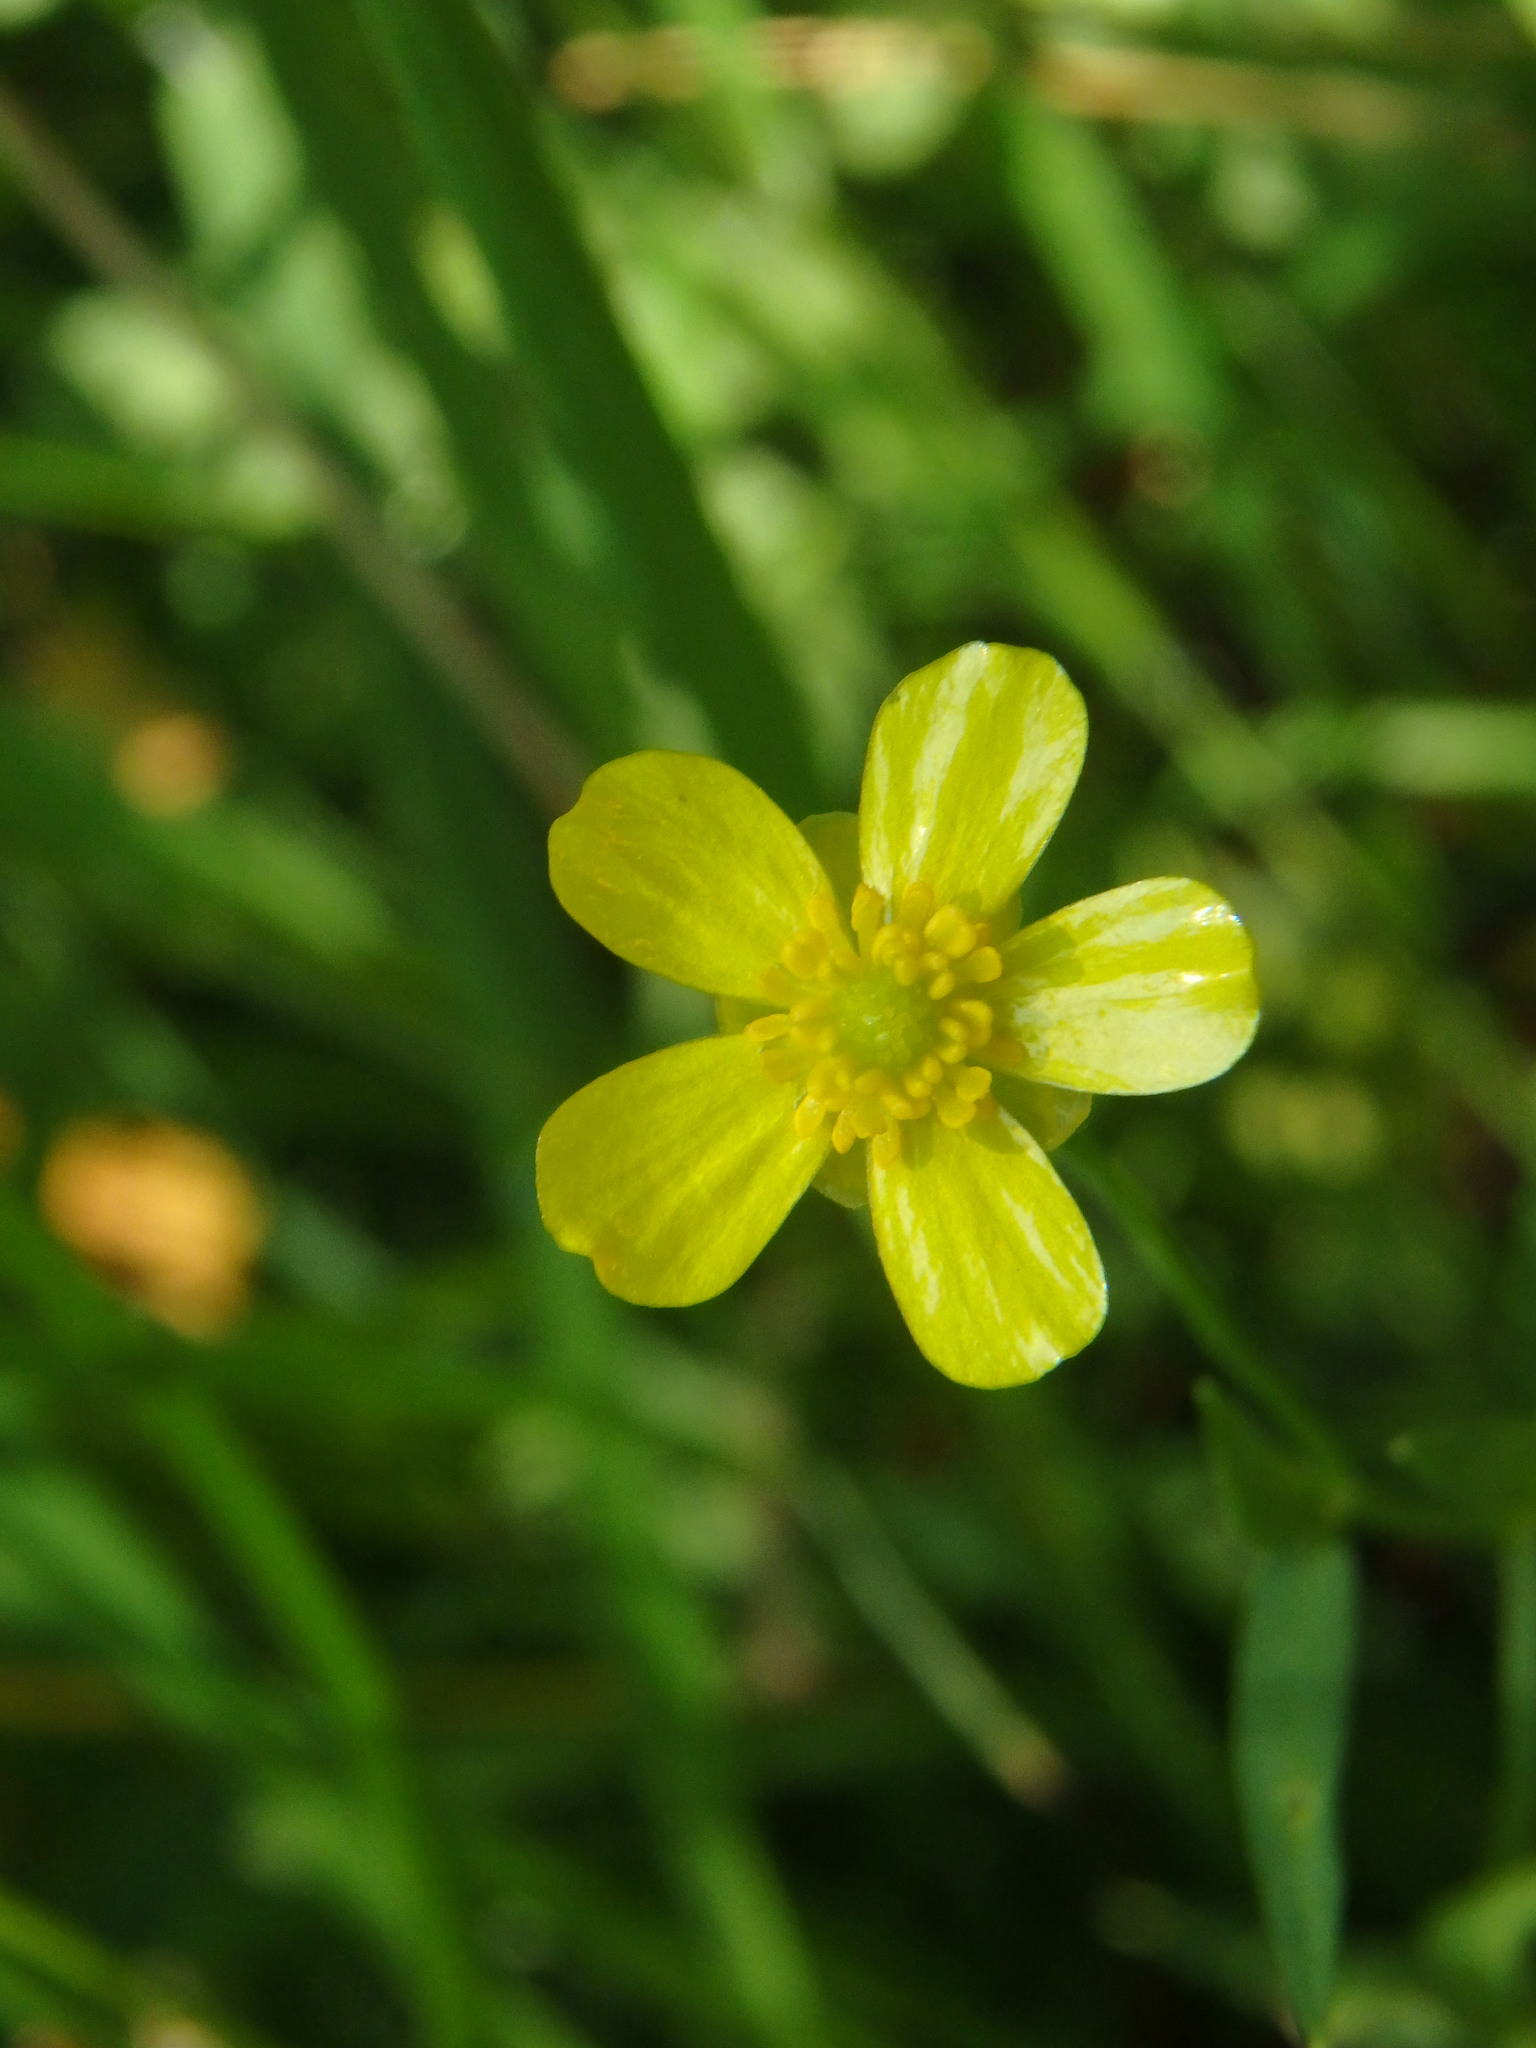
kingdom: Plantae
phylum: Tracheophyta
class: Magnoliopsida
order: Ranunculales
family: Ranunculaceae
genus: Ranunculus
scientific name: Ranunculus flammula
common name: Lesser spearwort
